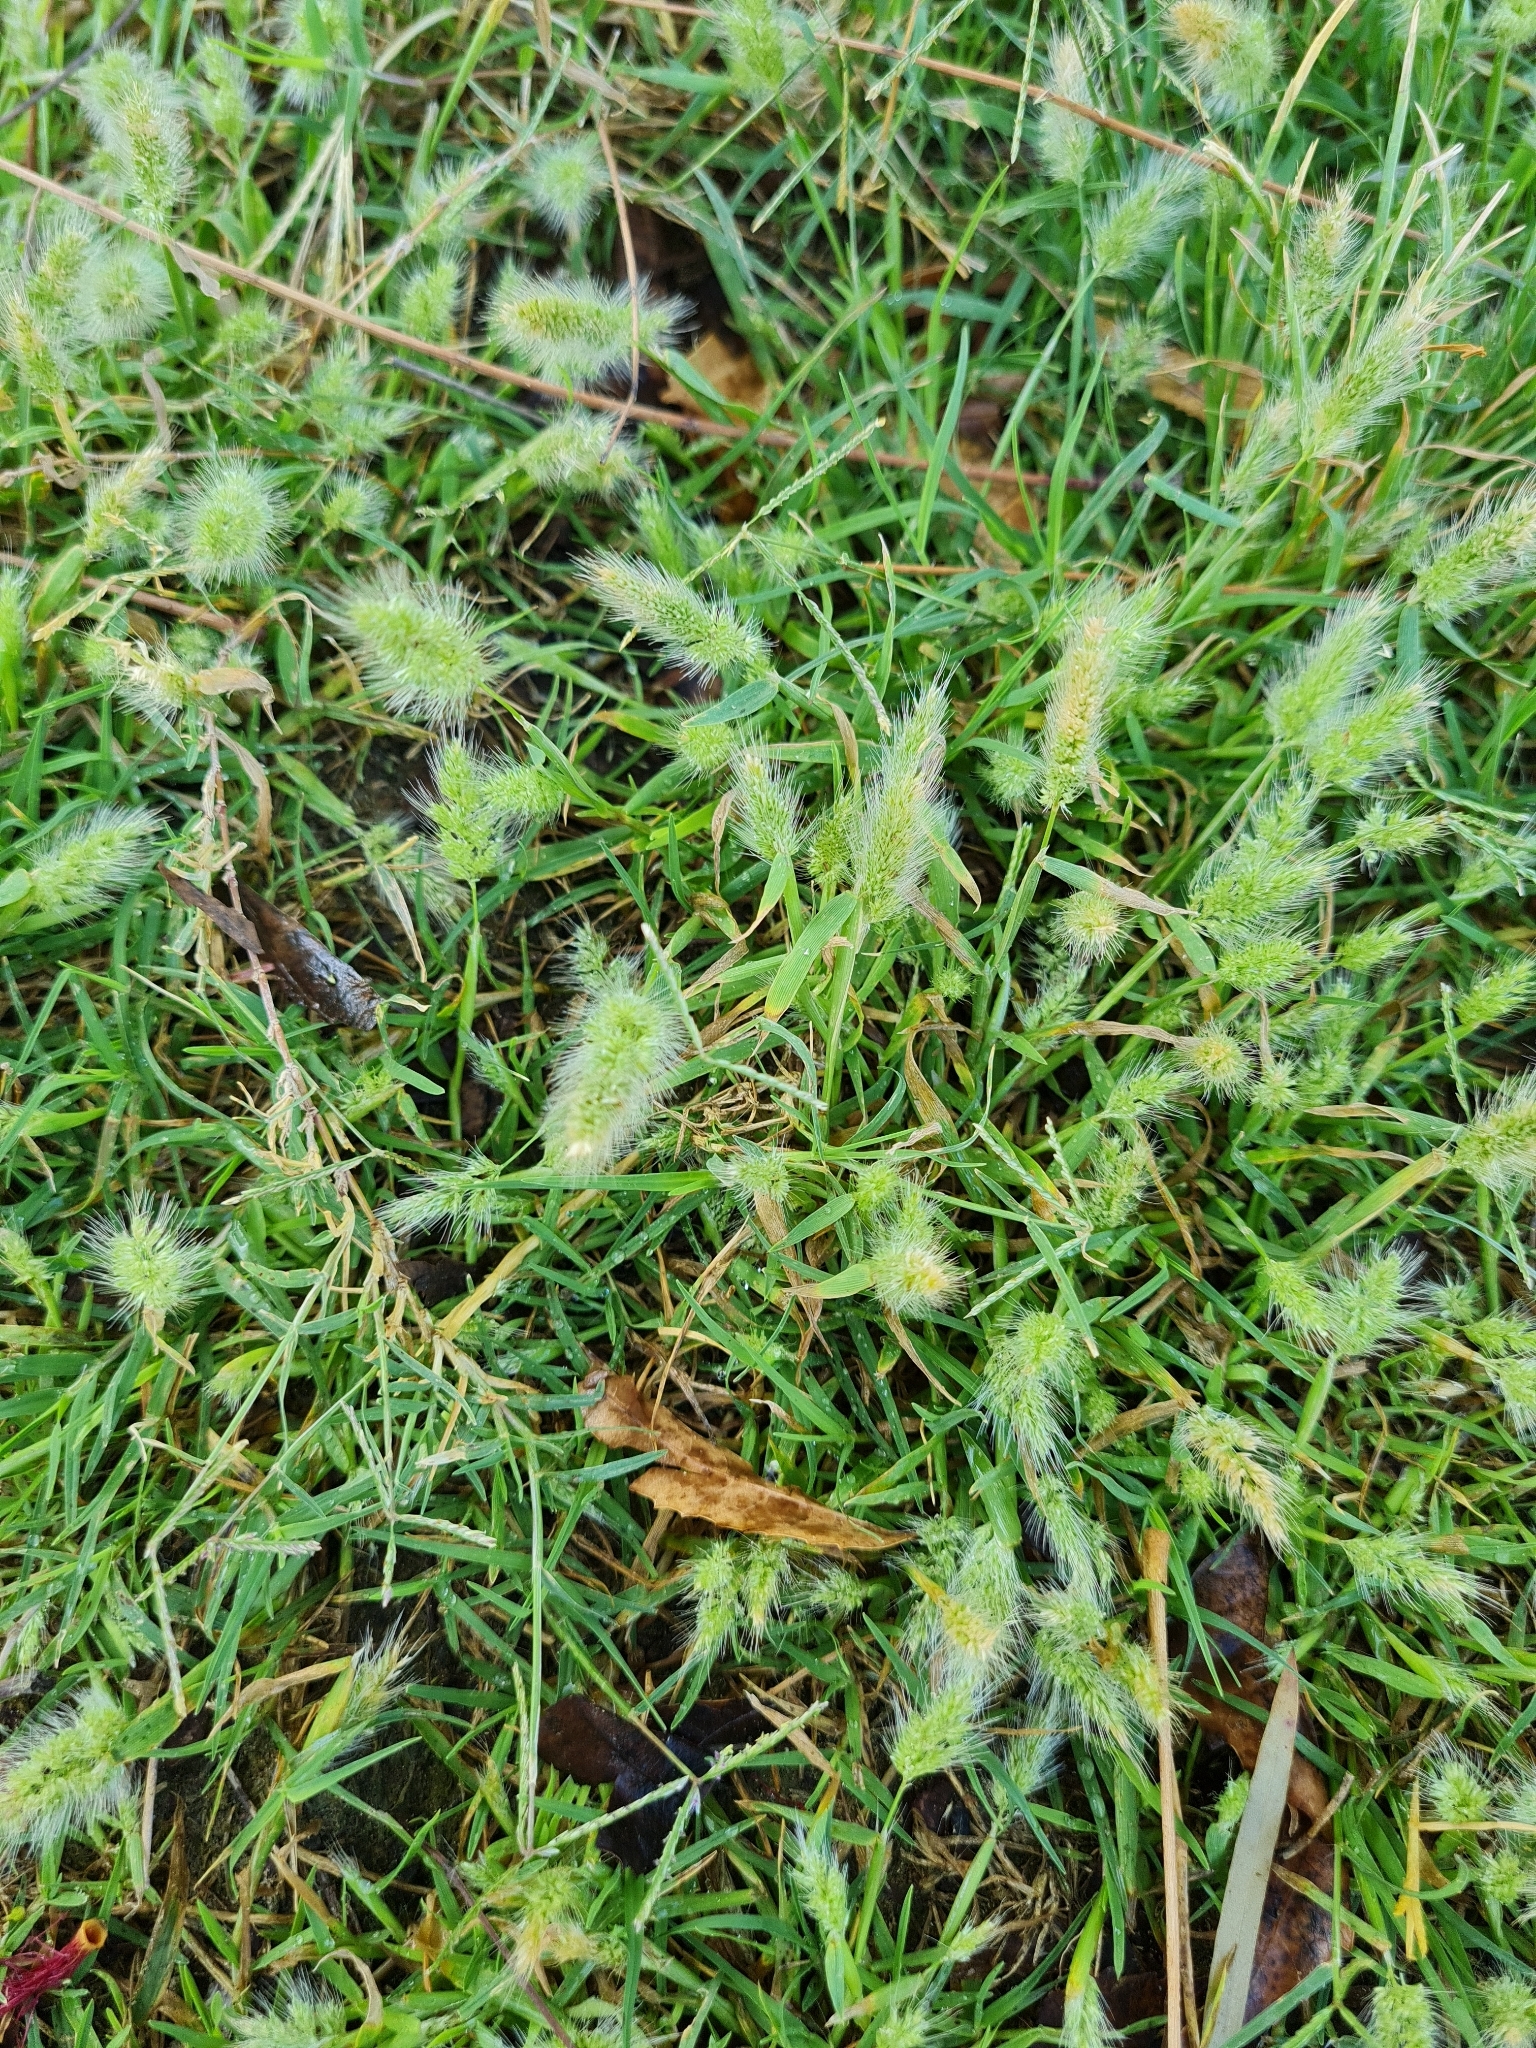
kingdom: Plantae
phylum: Tracheophyta
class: Liliopsida
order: Poales
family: Poaceae
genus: Polypogon
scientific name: Polypogon monspeliensis
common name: Annual rabbitsfoot grass
